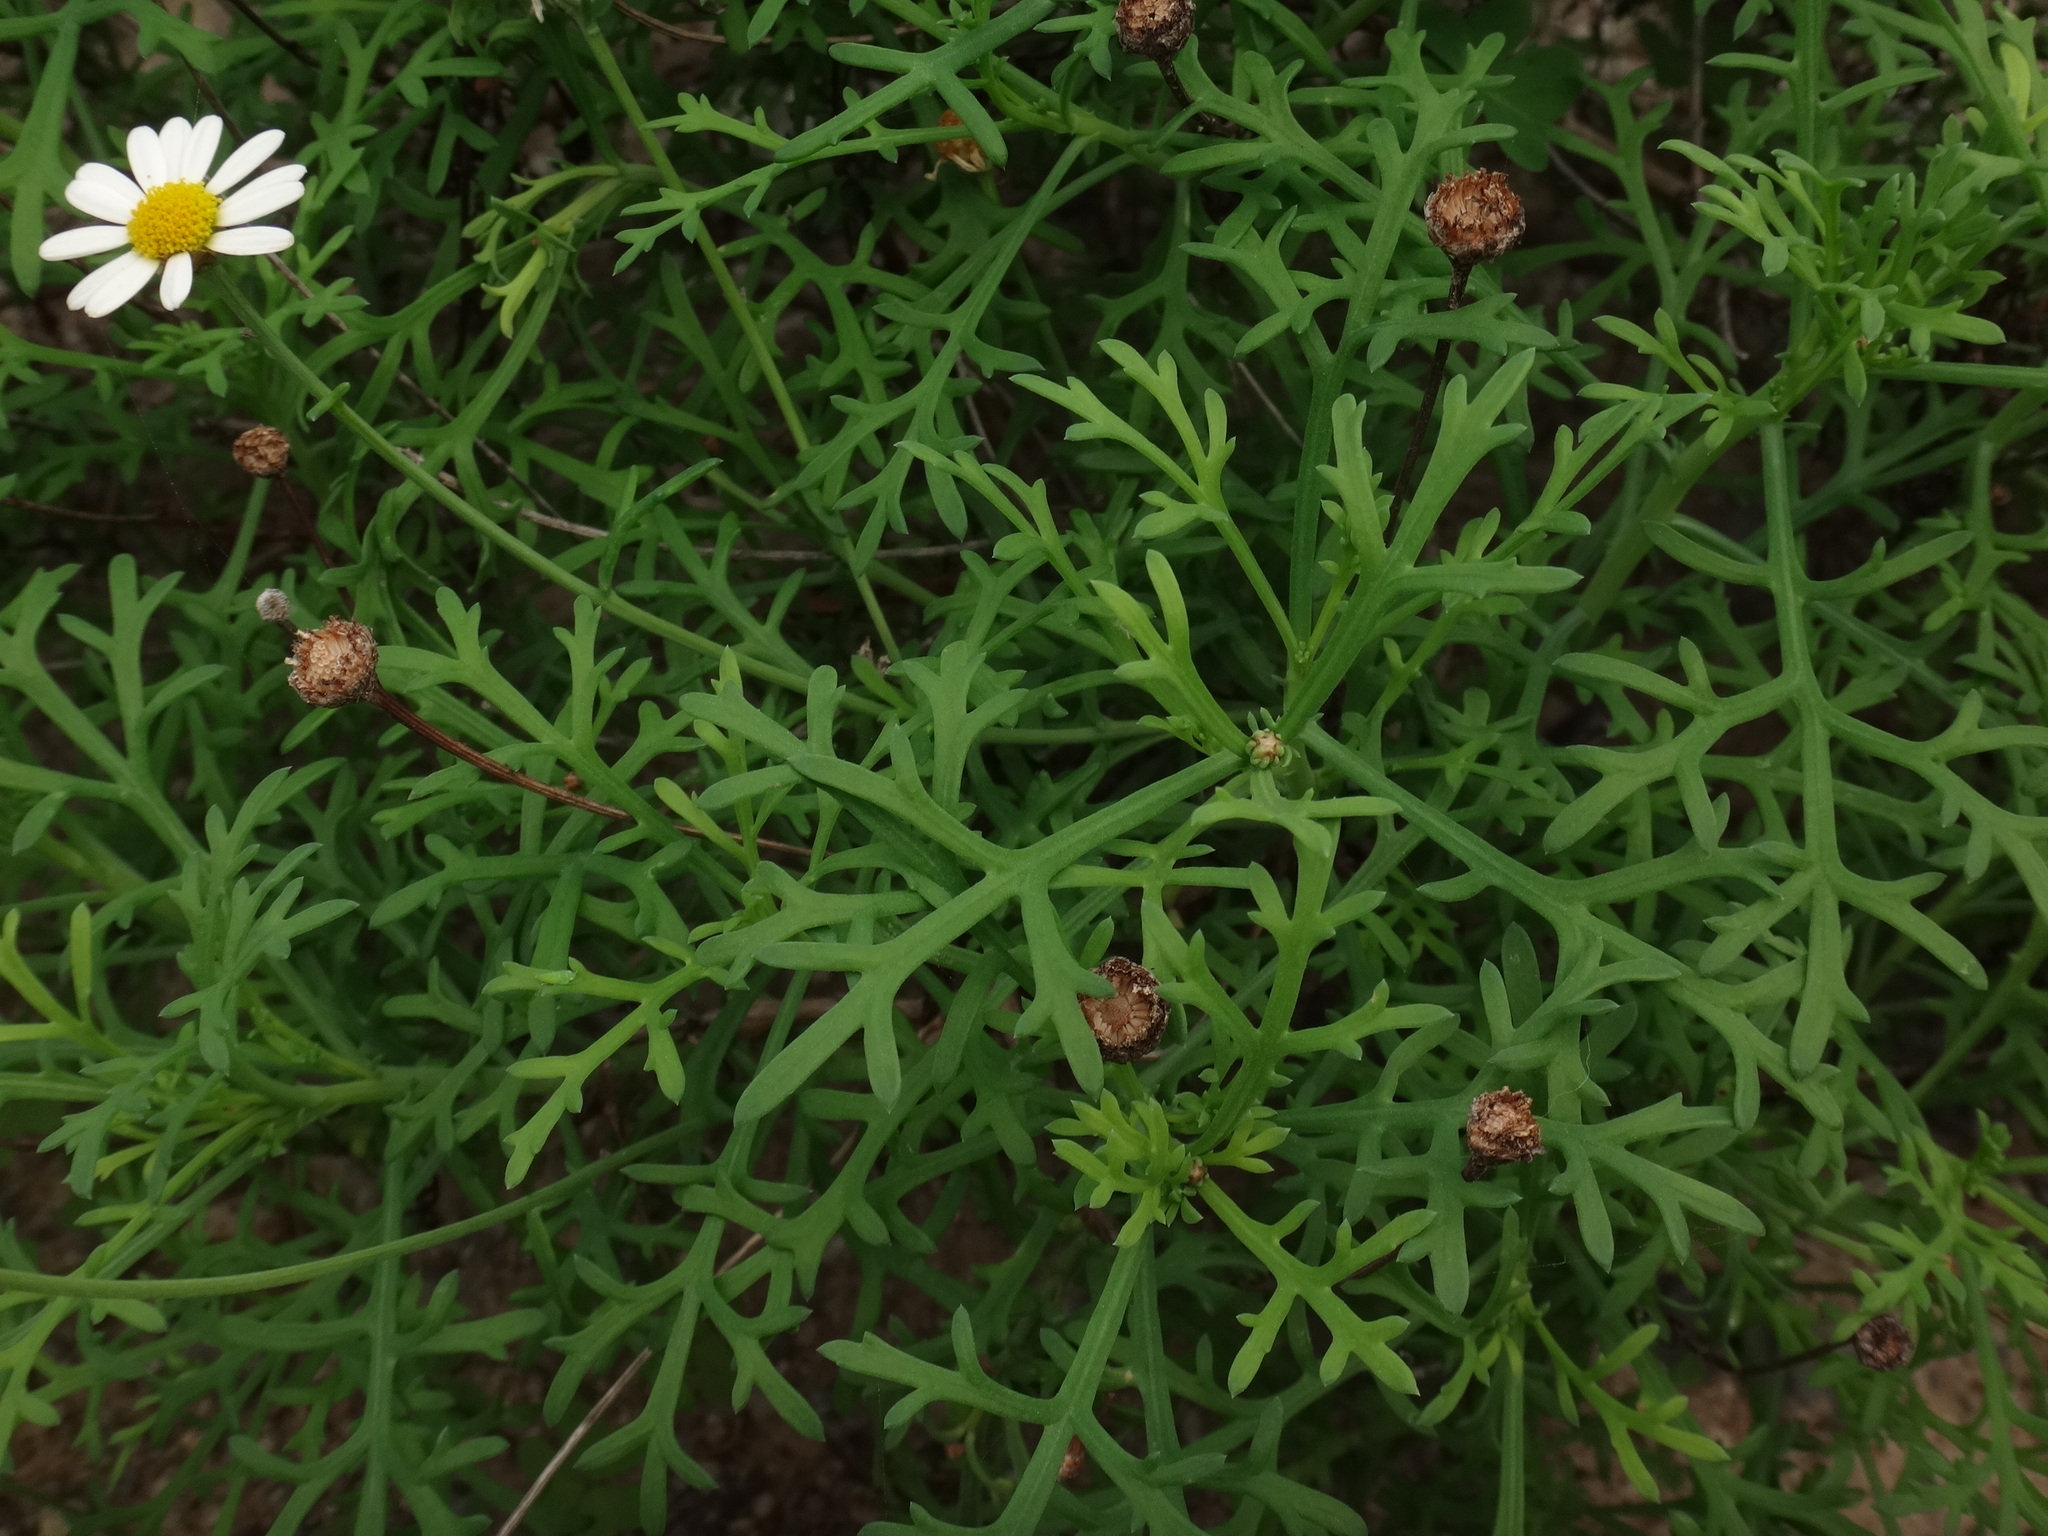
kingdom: Plantae
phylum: Tracheophyta
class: Magnoliopsida
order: Asterales
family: Asteraceae
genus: Argyranthemum
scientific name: Argyranthemum frutescens
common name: Paris daisy
